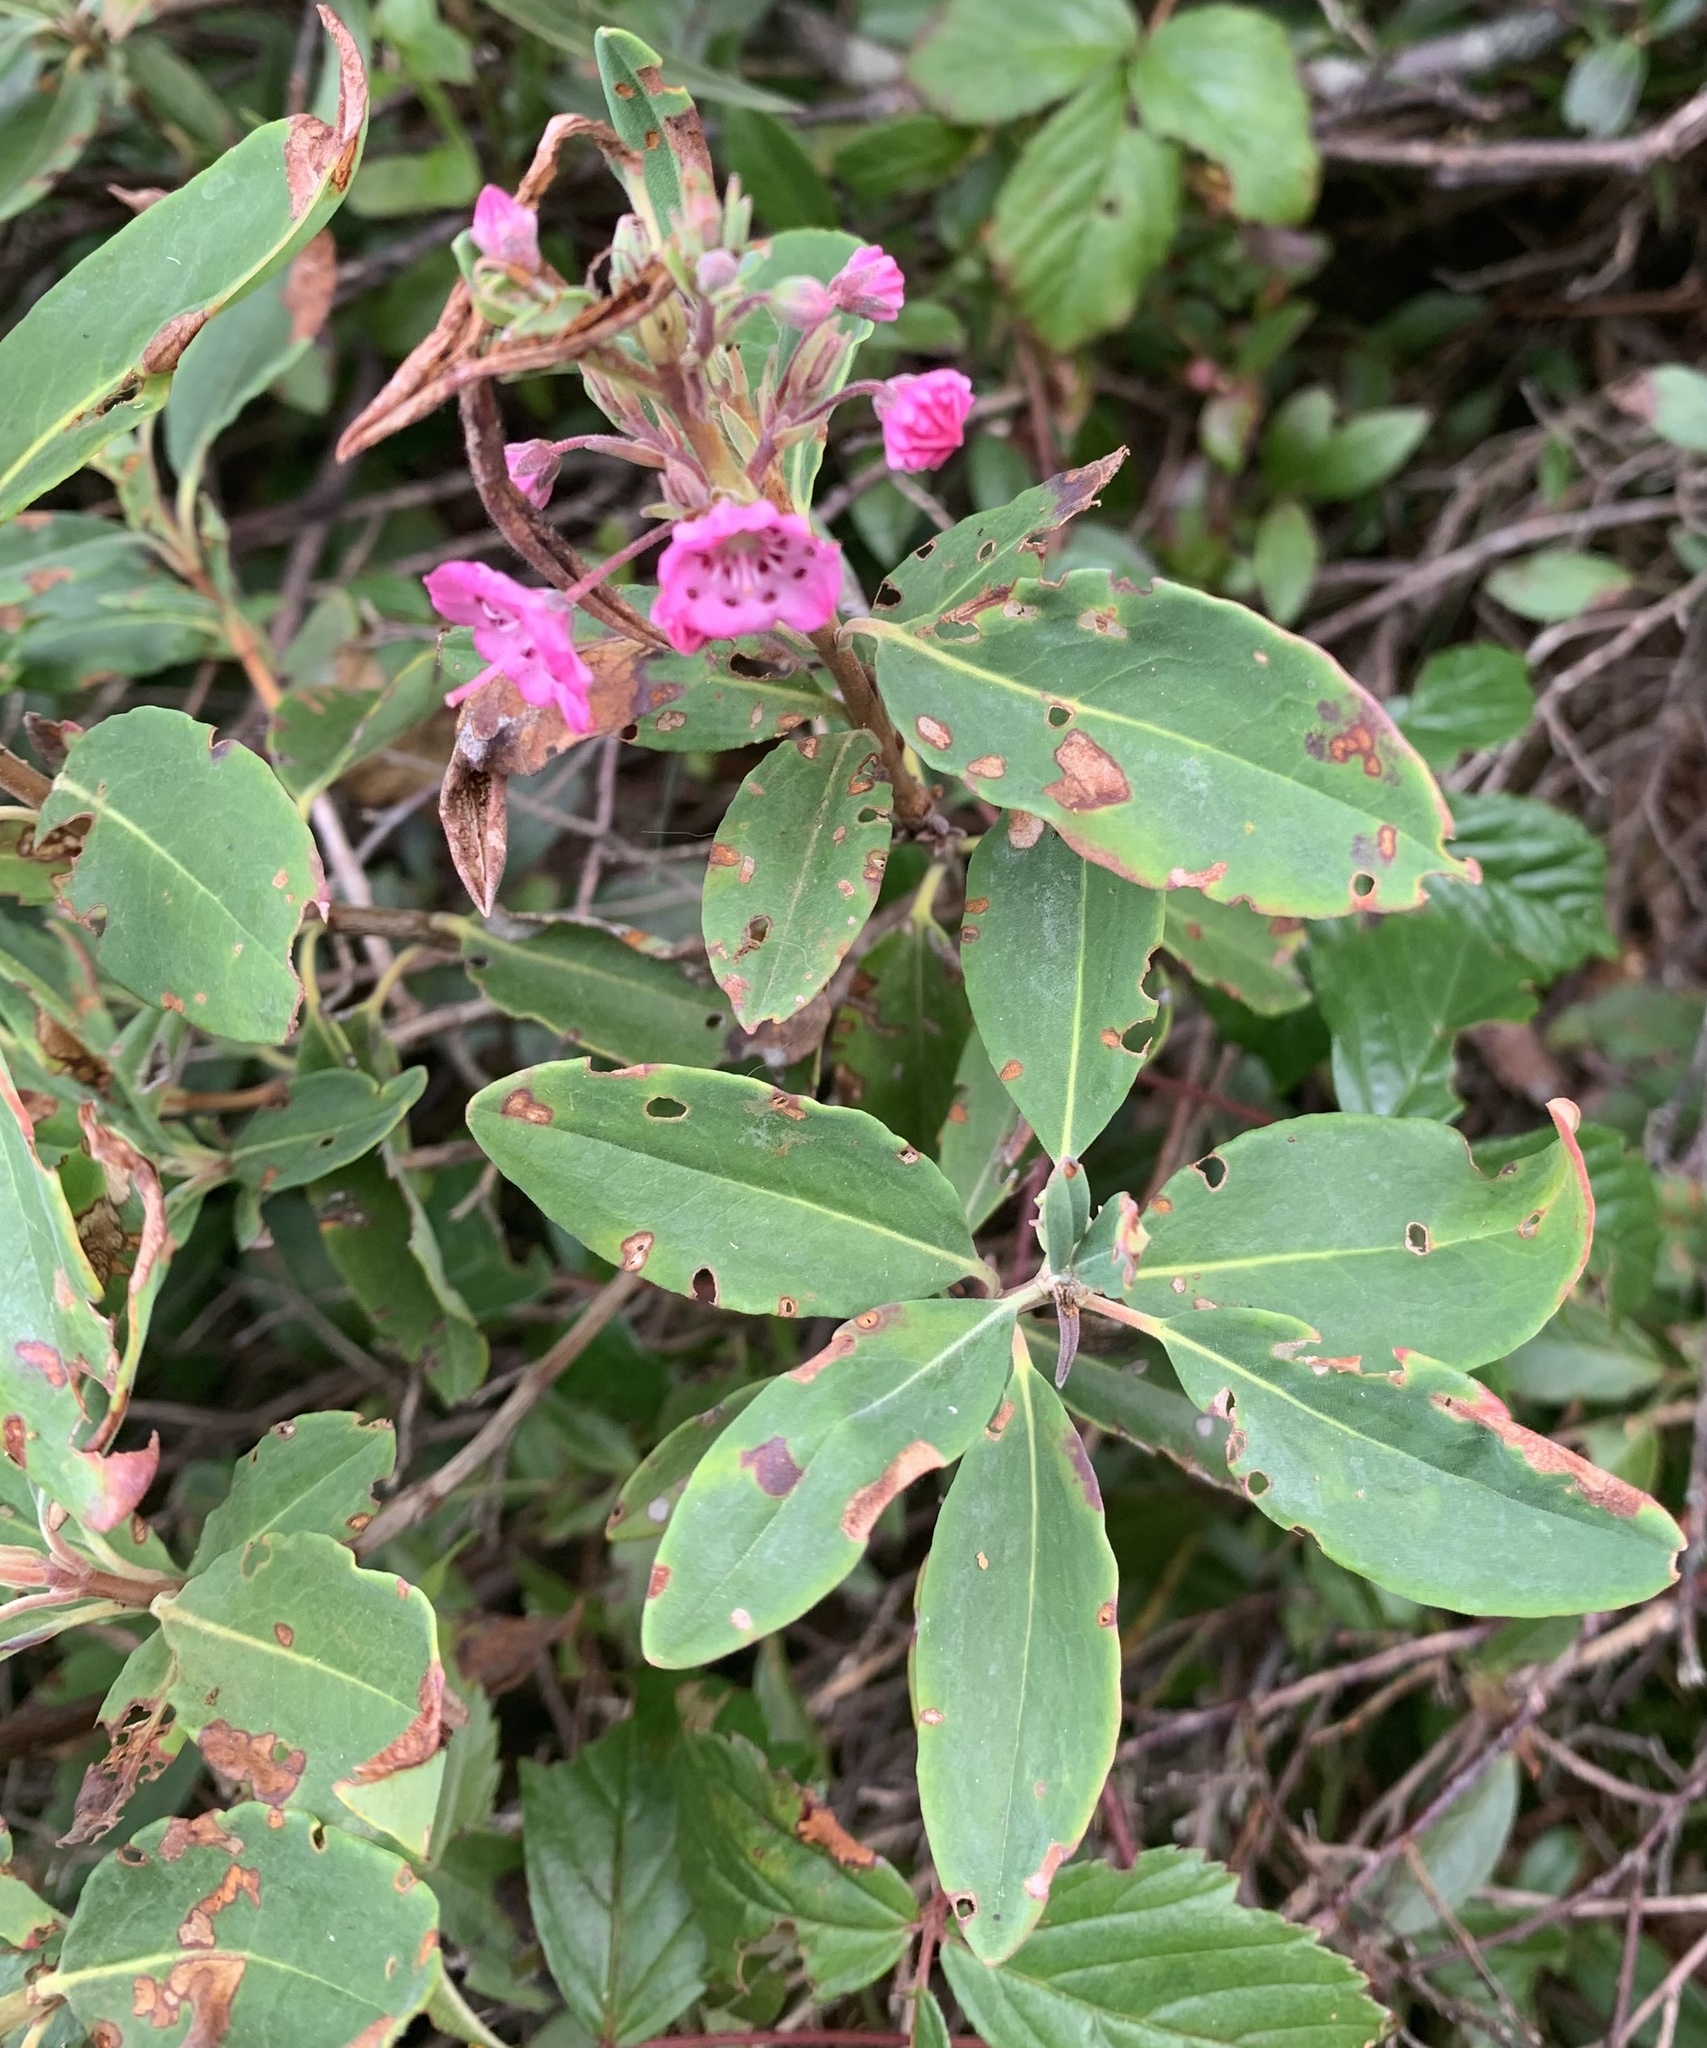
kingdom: Plantae
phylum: Tracheophyta
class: Magnoliopsida
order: Ericales
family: Ericaceae
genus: Kalmia
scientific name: Kalmia angustifolia
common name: Sheep-laurel
